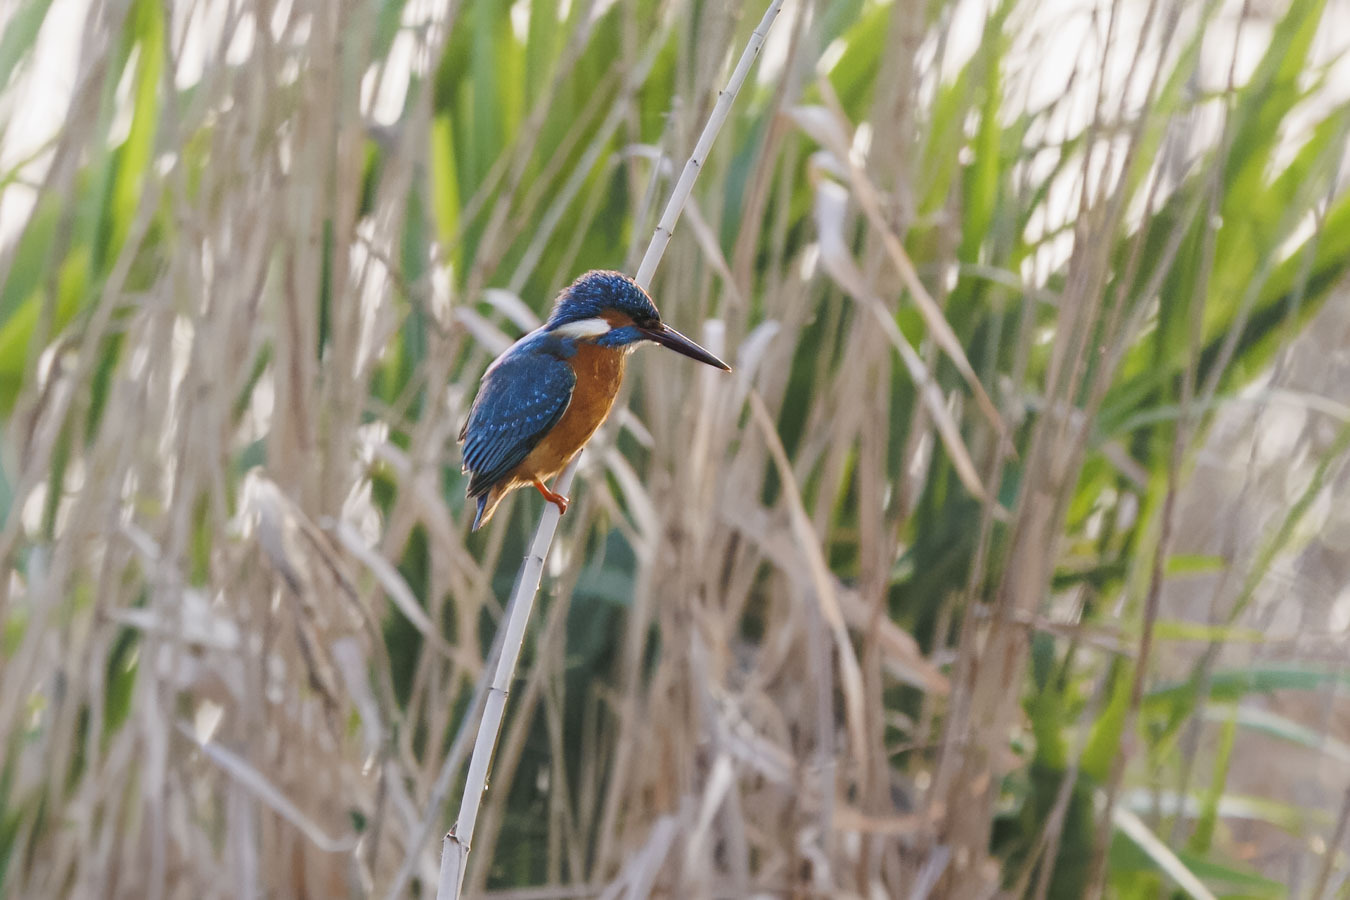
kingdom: Animalia
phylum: Chordata
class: Aves
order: Coraciiformes
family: Alcedinidae
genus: Alcedo
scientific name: Alcedo atthis
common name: Common kingfisher
